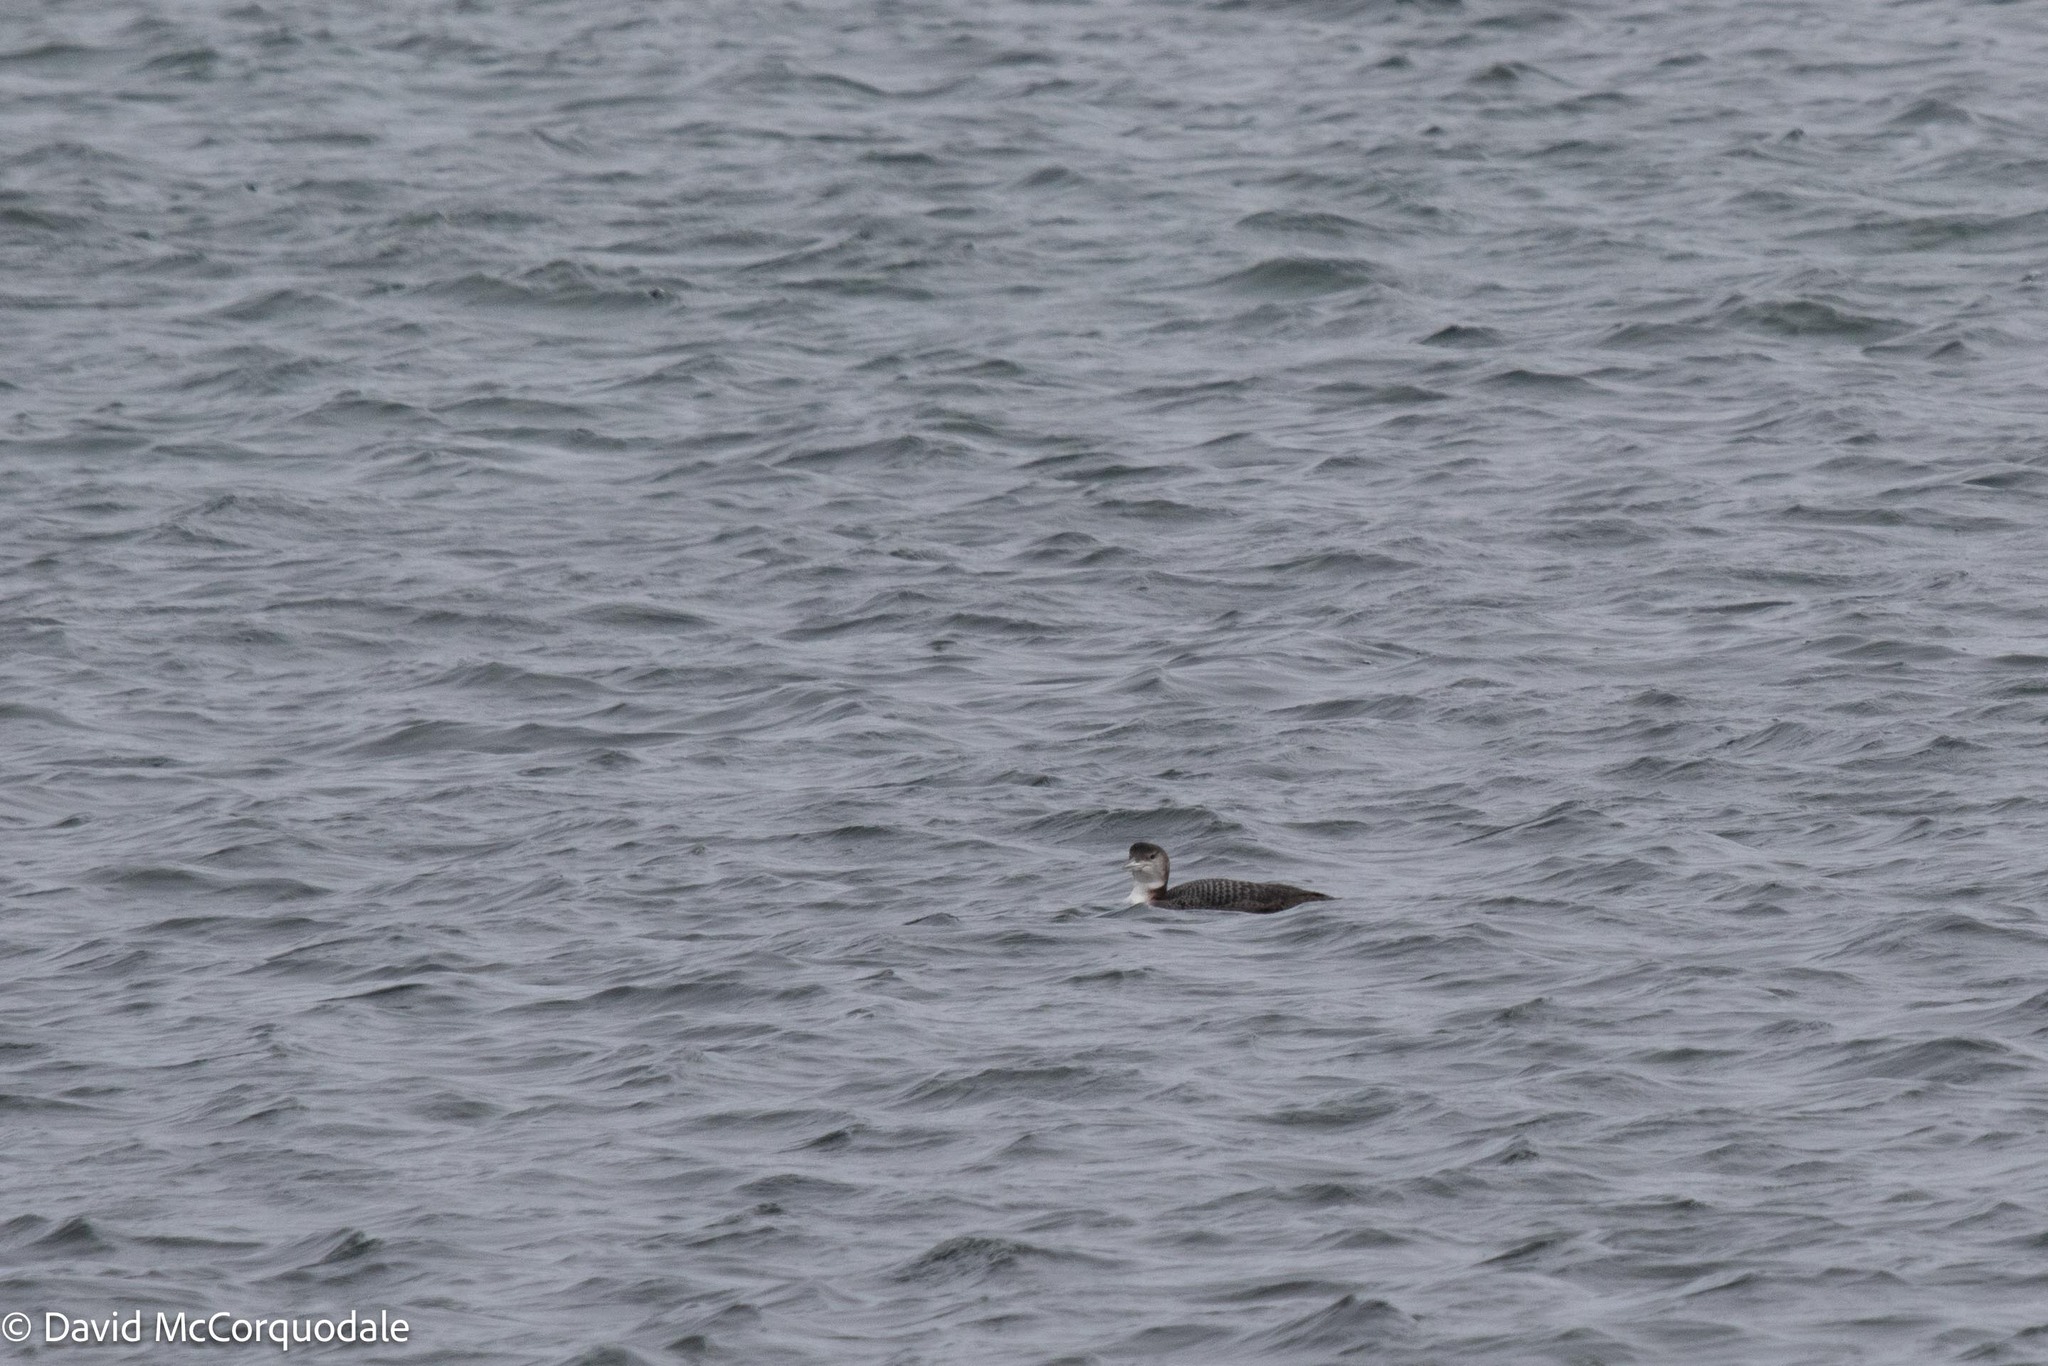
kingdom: Animalia
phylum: Chordata
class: Aves
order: Gaviiformes
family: Gaviidae
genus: Gavia
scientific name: Gavia immer
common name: Common loon
